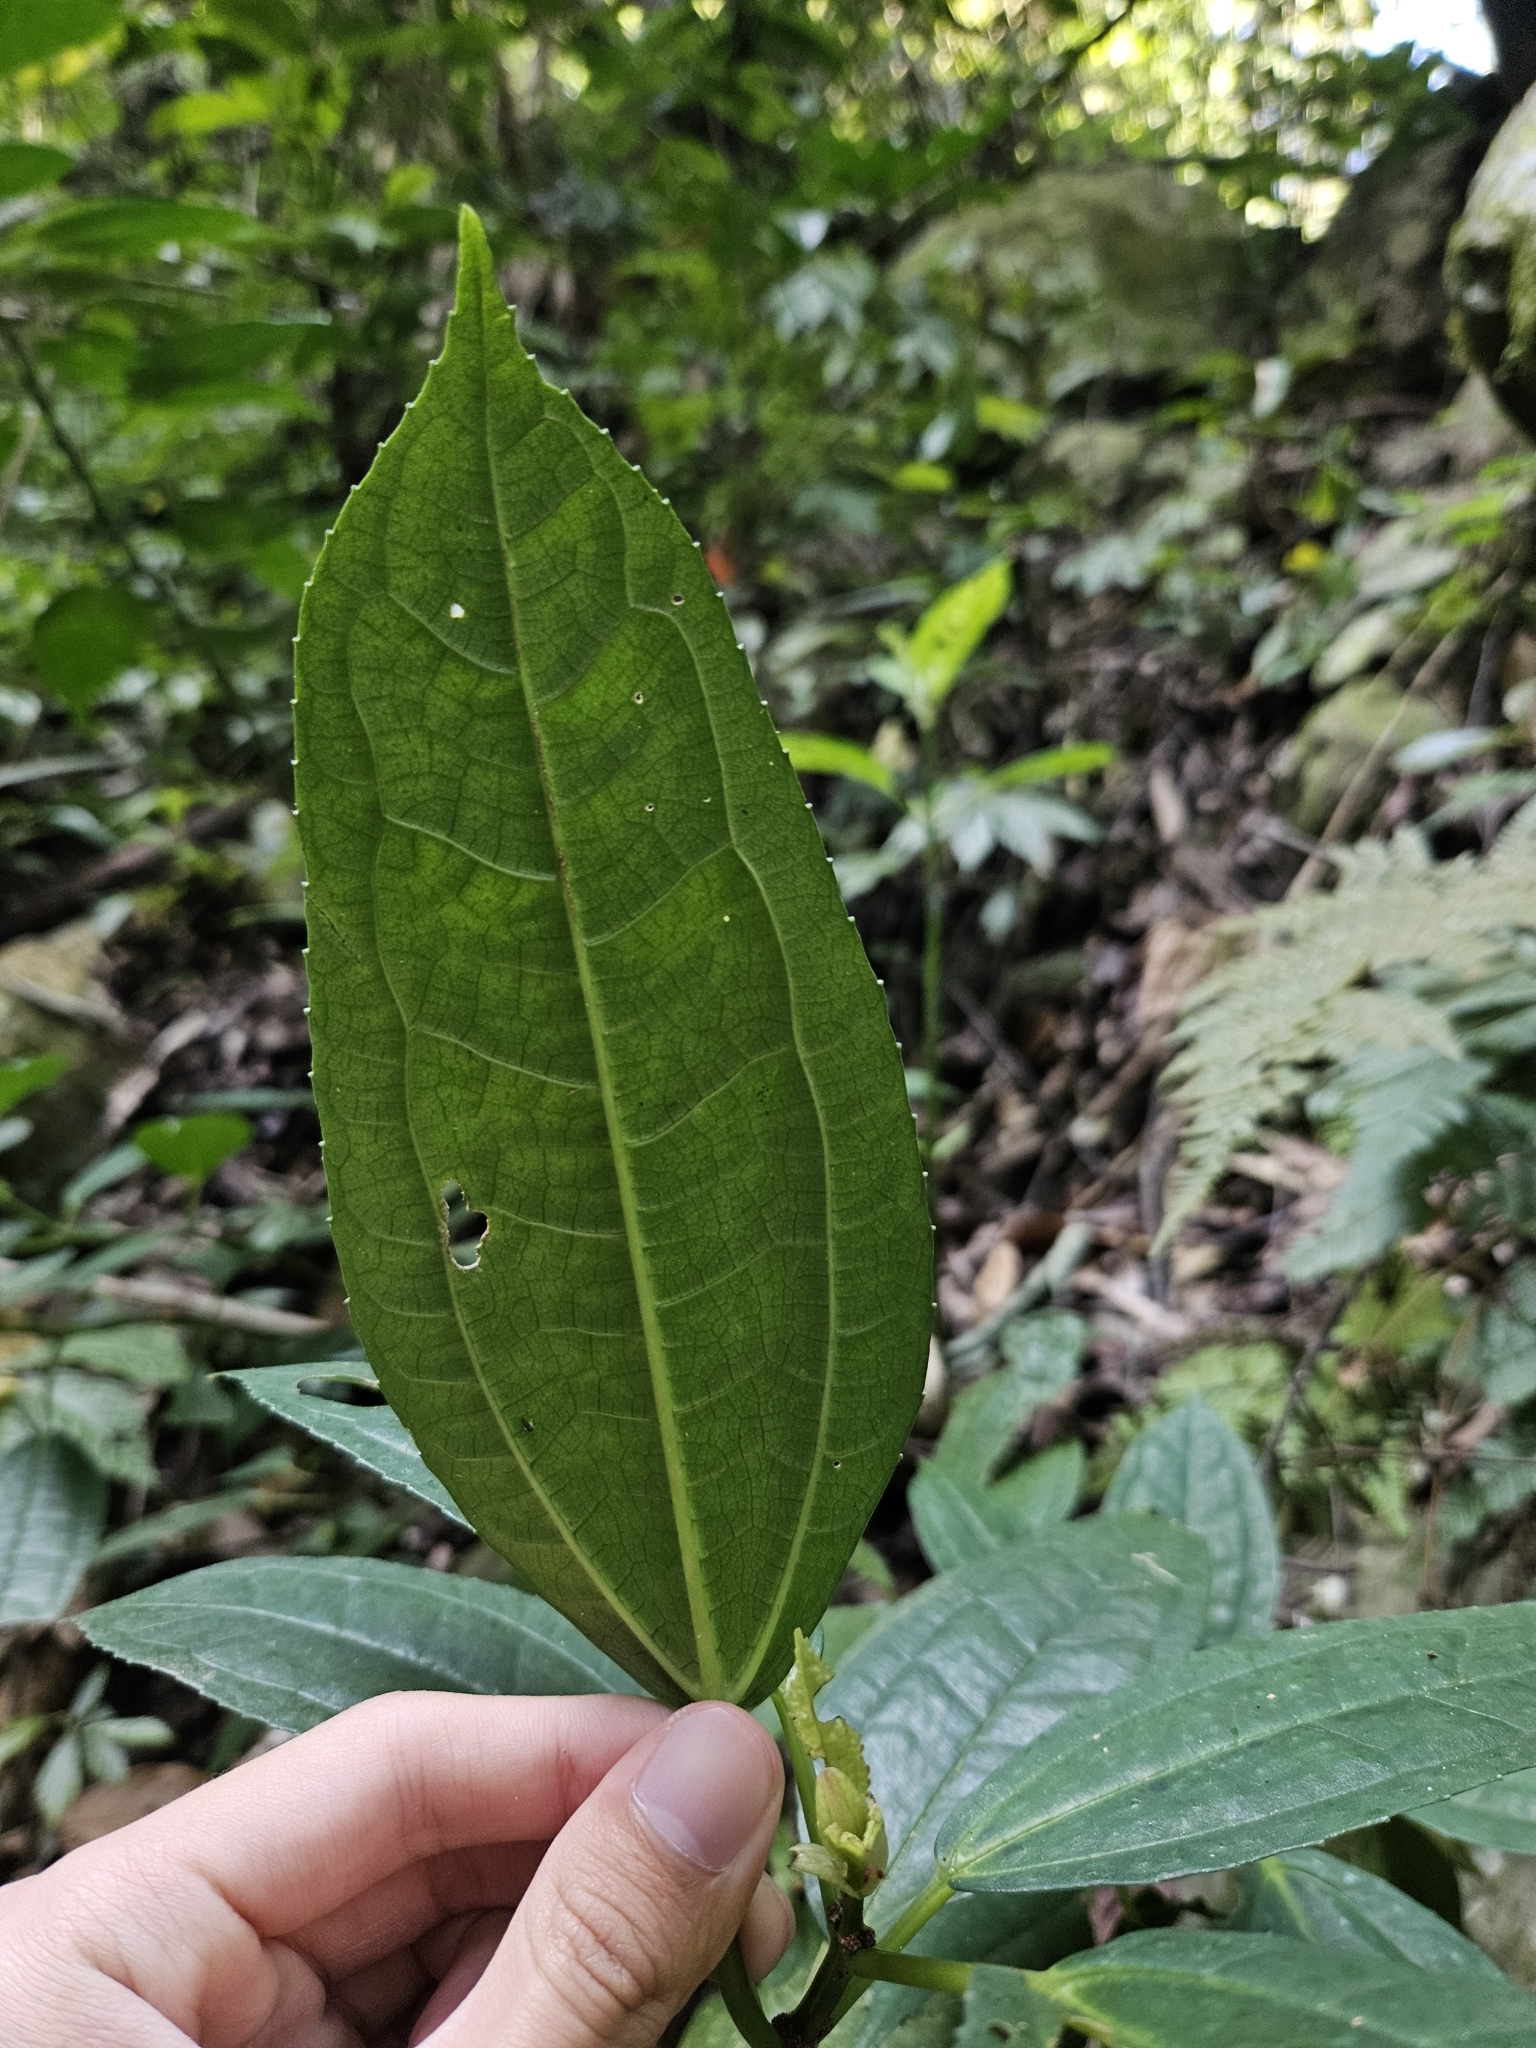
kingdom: Plantae
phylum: Tracheophyta
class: Magnoliopsida
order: Rosales
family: Urticaceae
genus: Pilea
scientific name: Pilea funkikensis
